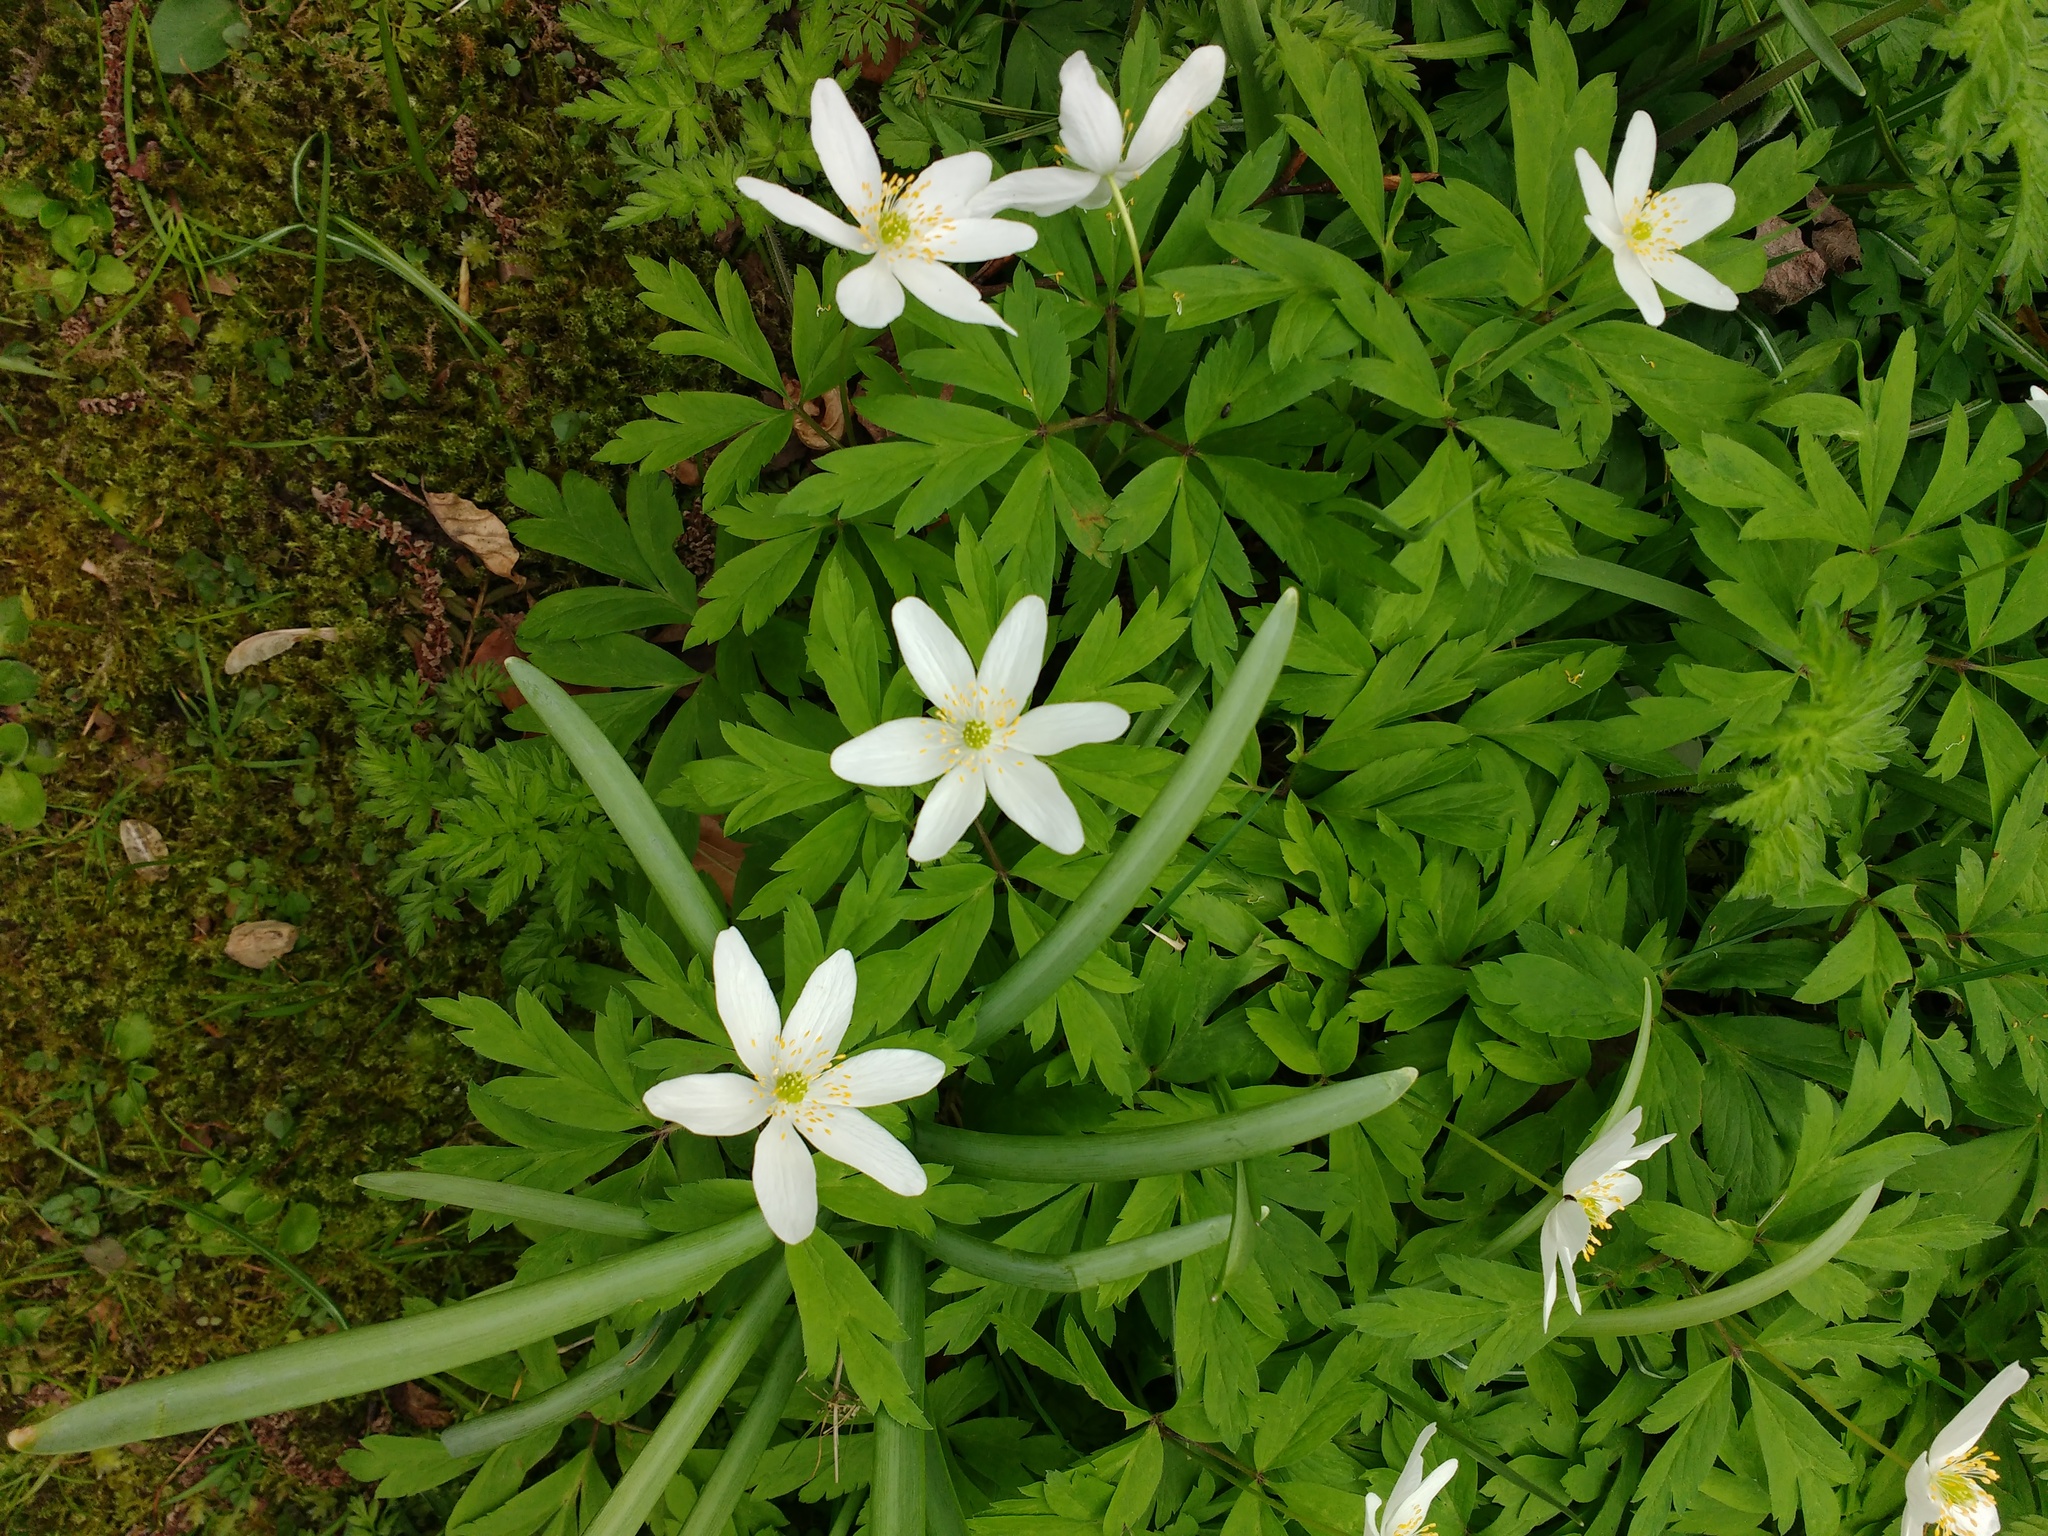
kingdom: Plantae
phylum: Tracheophyta
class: Magnoliopsida
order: Ranunculales
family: Ranunculaceae
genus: Anemone
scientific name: Anemone nemorosa
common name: Wood anemone
